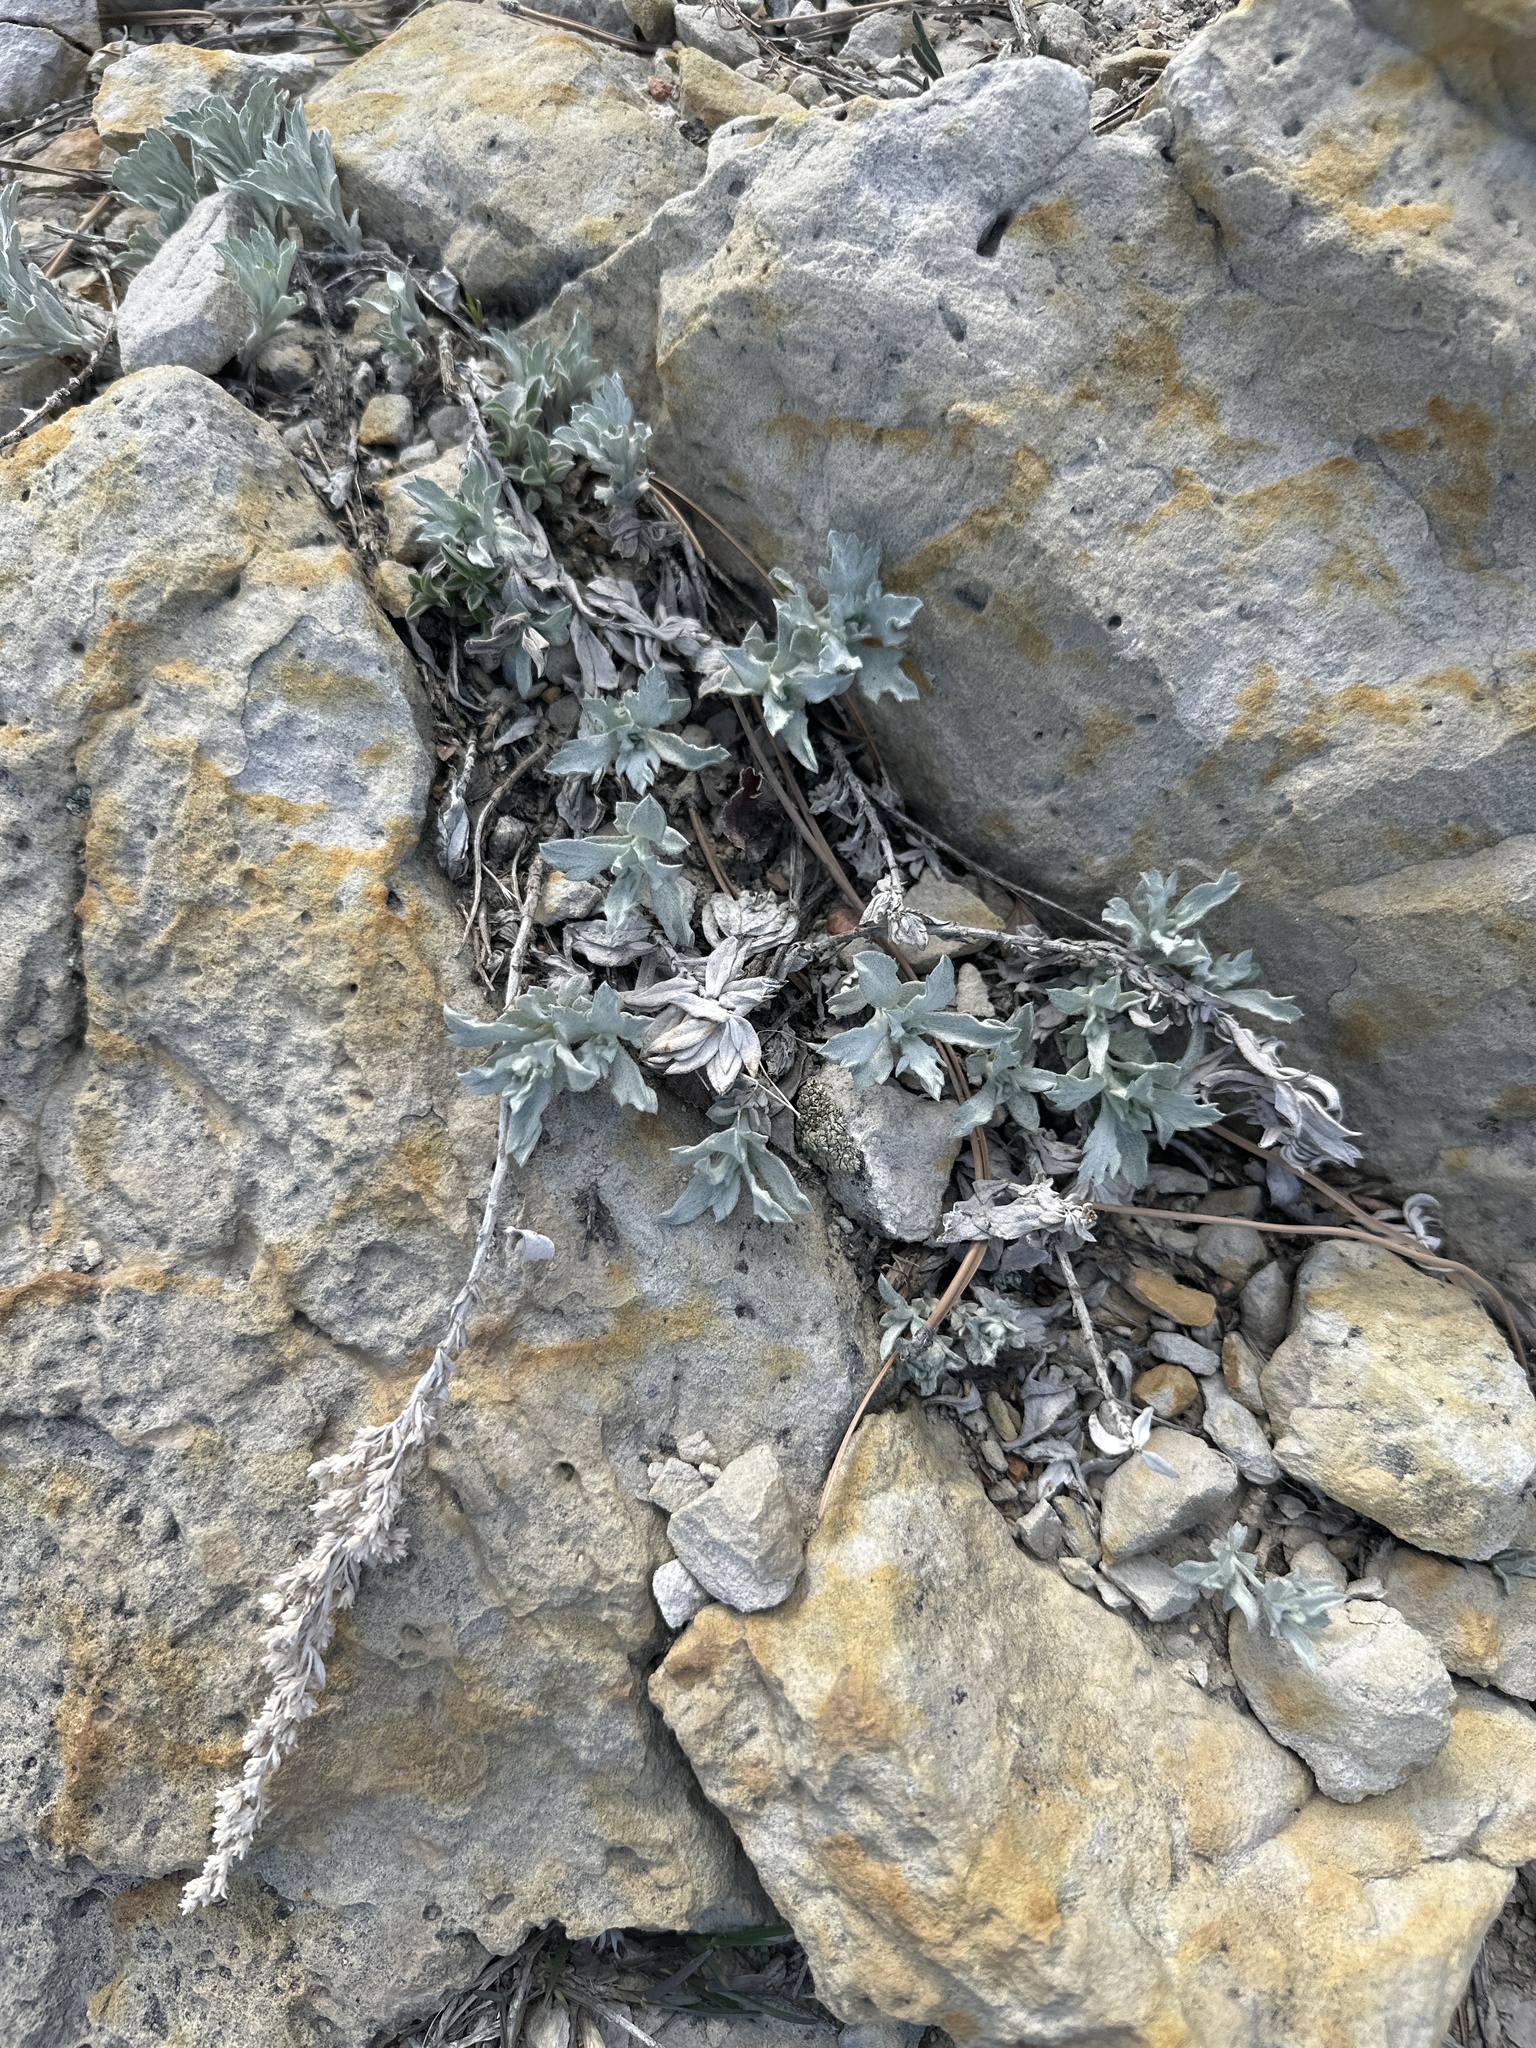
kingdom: Plantae
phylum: Tracheophyta
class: Magnoliopsida
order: Asterales
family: Asteraceae
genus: Artemisia
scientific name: Artemisia ludoviciana
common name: Western mugwort
